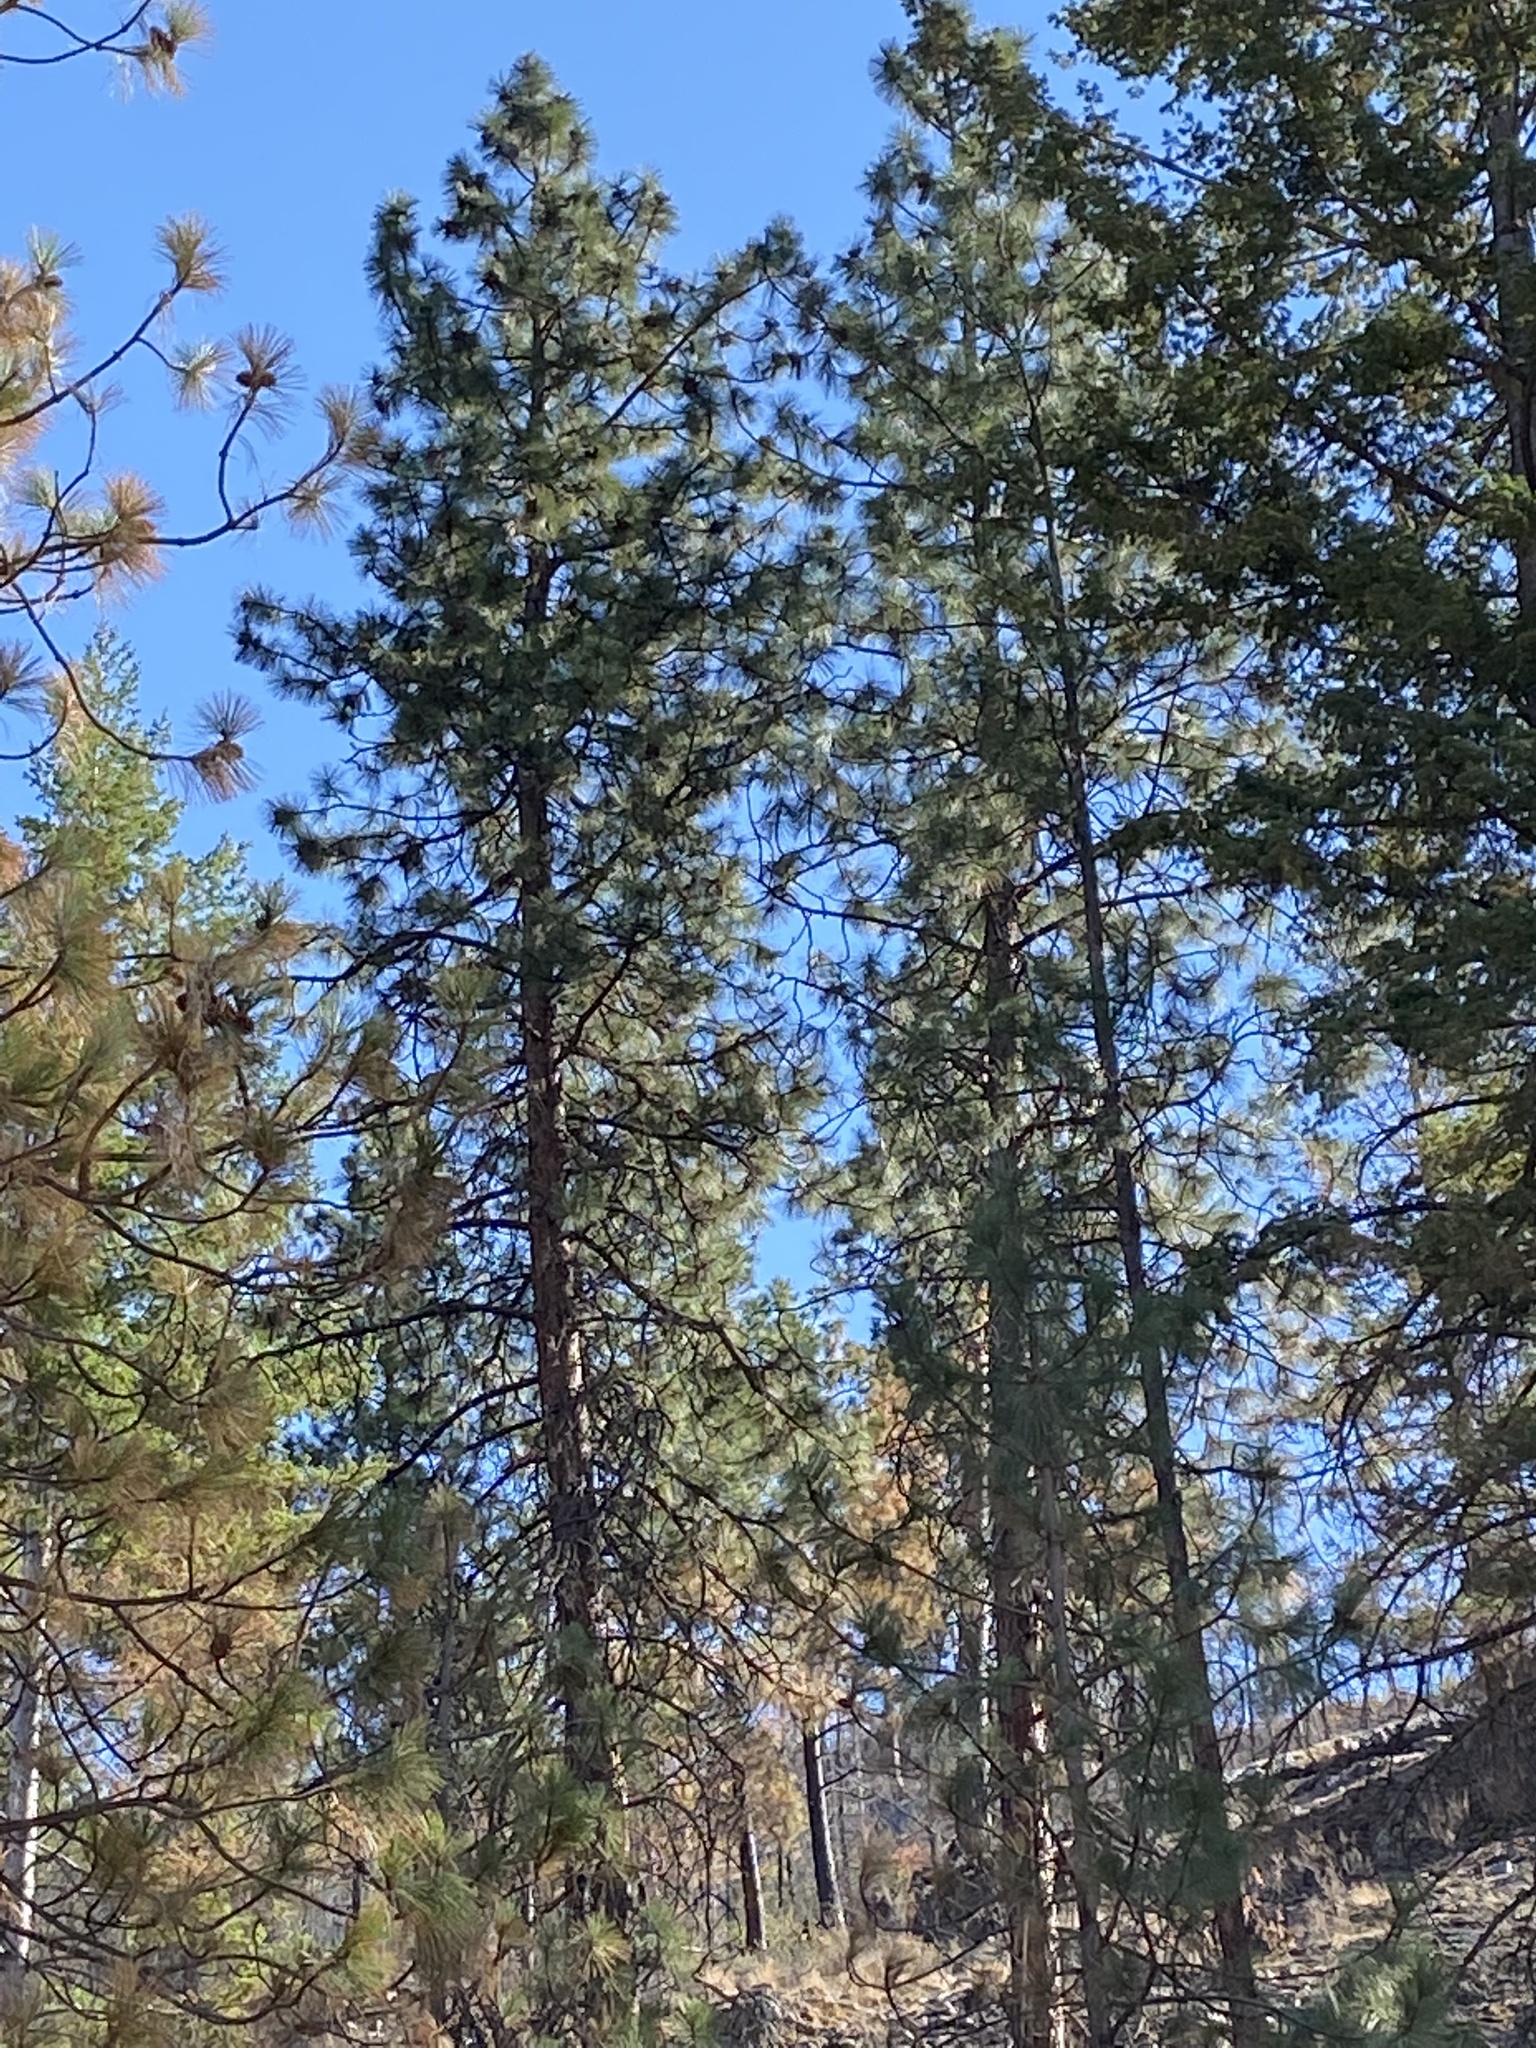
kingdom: Plantae
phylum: Tracheophyta
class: Pinopsida
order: Pinales
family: Pinaceae
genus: Pinus
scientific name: Pinus ponderosa
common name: Western yellow-pine
